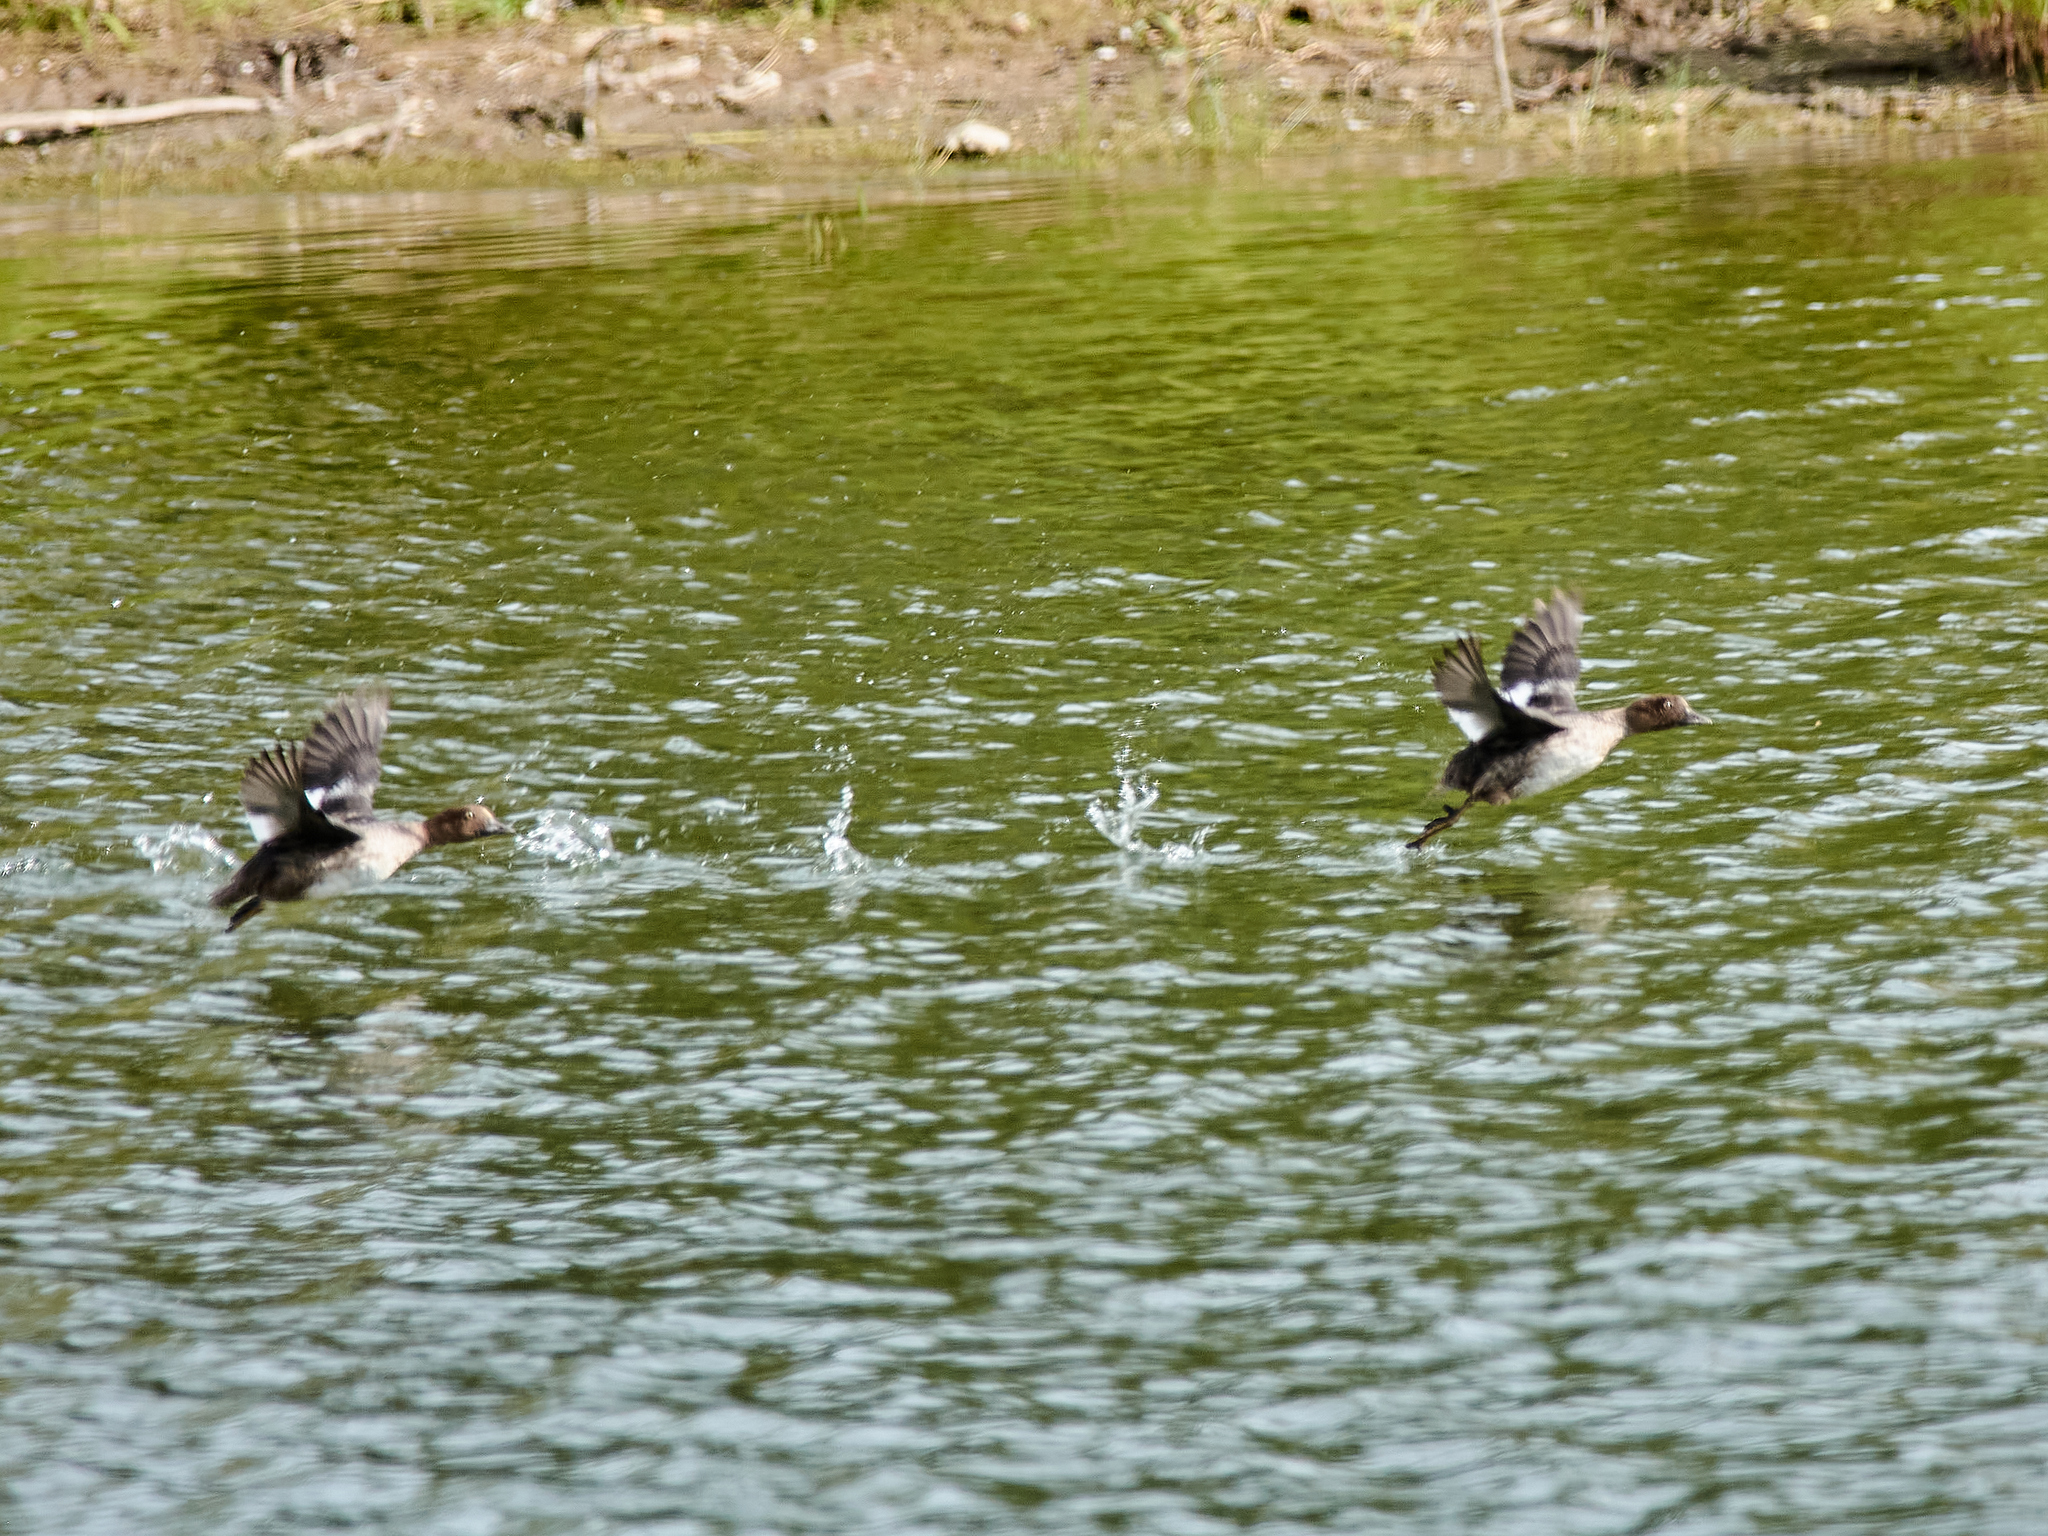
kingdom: Animalia
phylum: Chordata
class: Aves
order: Anseriformes
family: Anatidae
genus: Bucephala
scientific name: Bucephala clangula
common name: Common goldeneye
